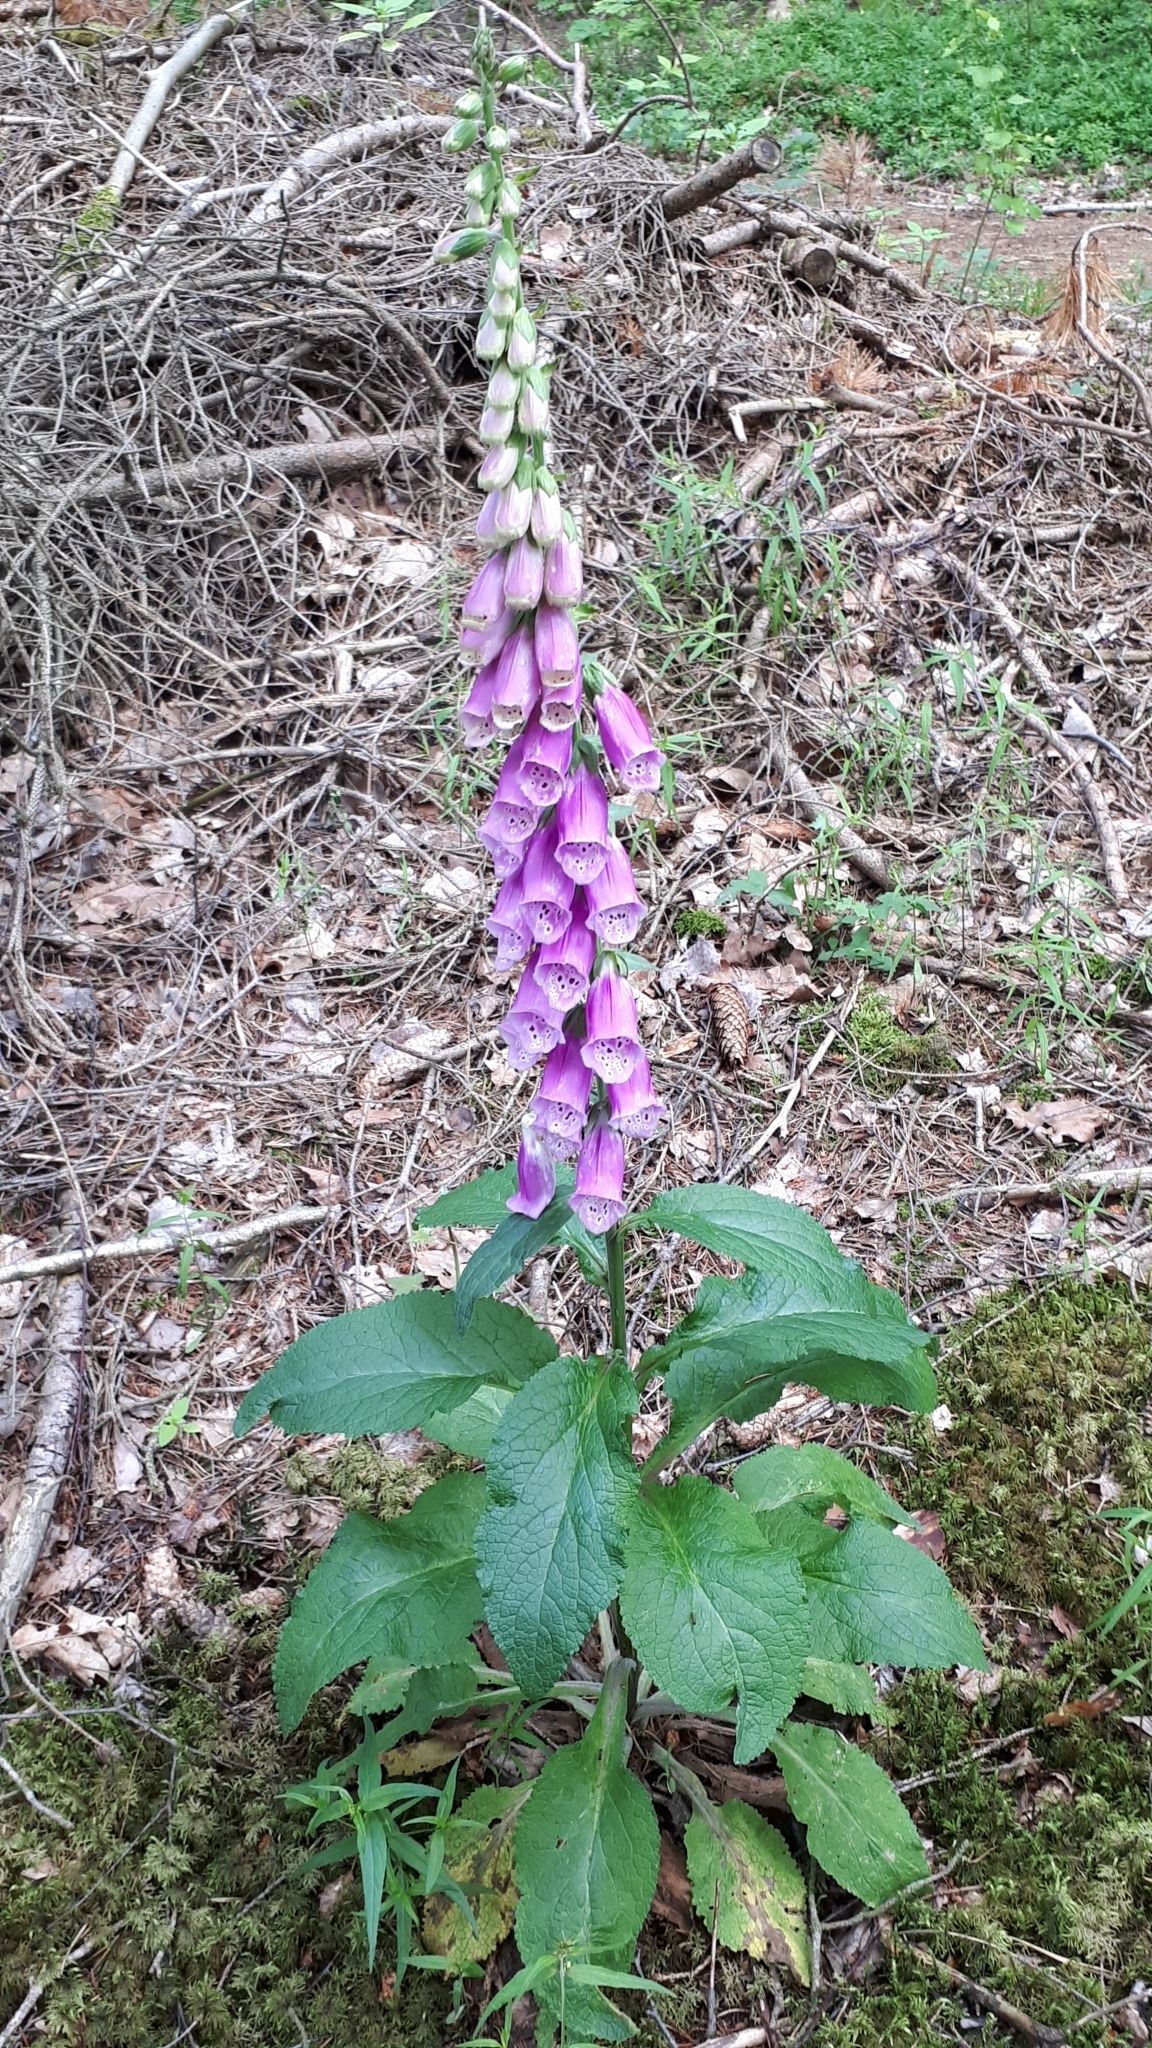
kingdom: Plantae
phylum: Tracheophyta
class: Magnoliopsida
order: Lamiales
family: Plantaginaceae
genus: Digitalis
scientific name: Digitalis purpurea
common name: Foxglove
